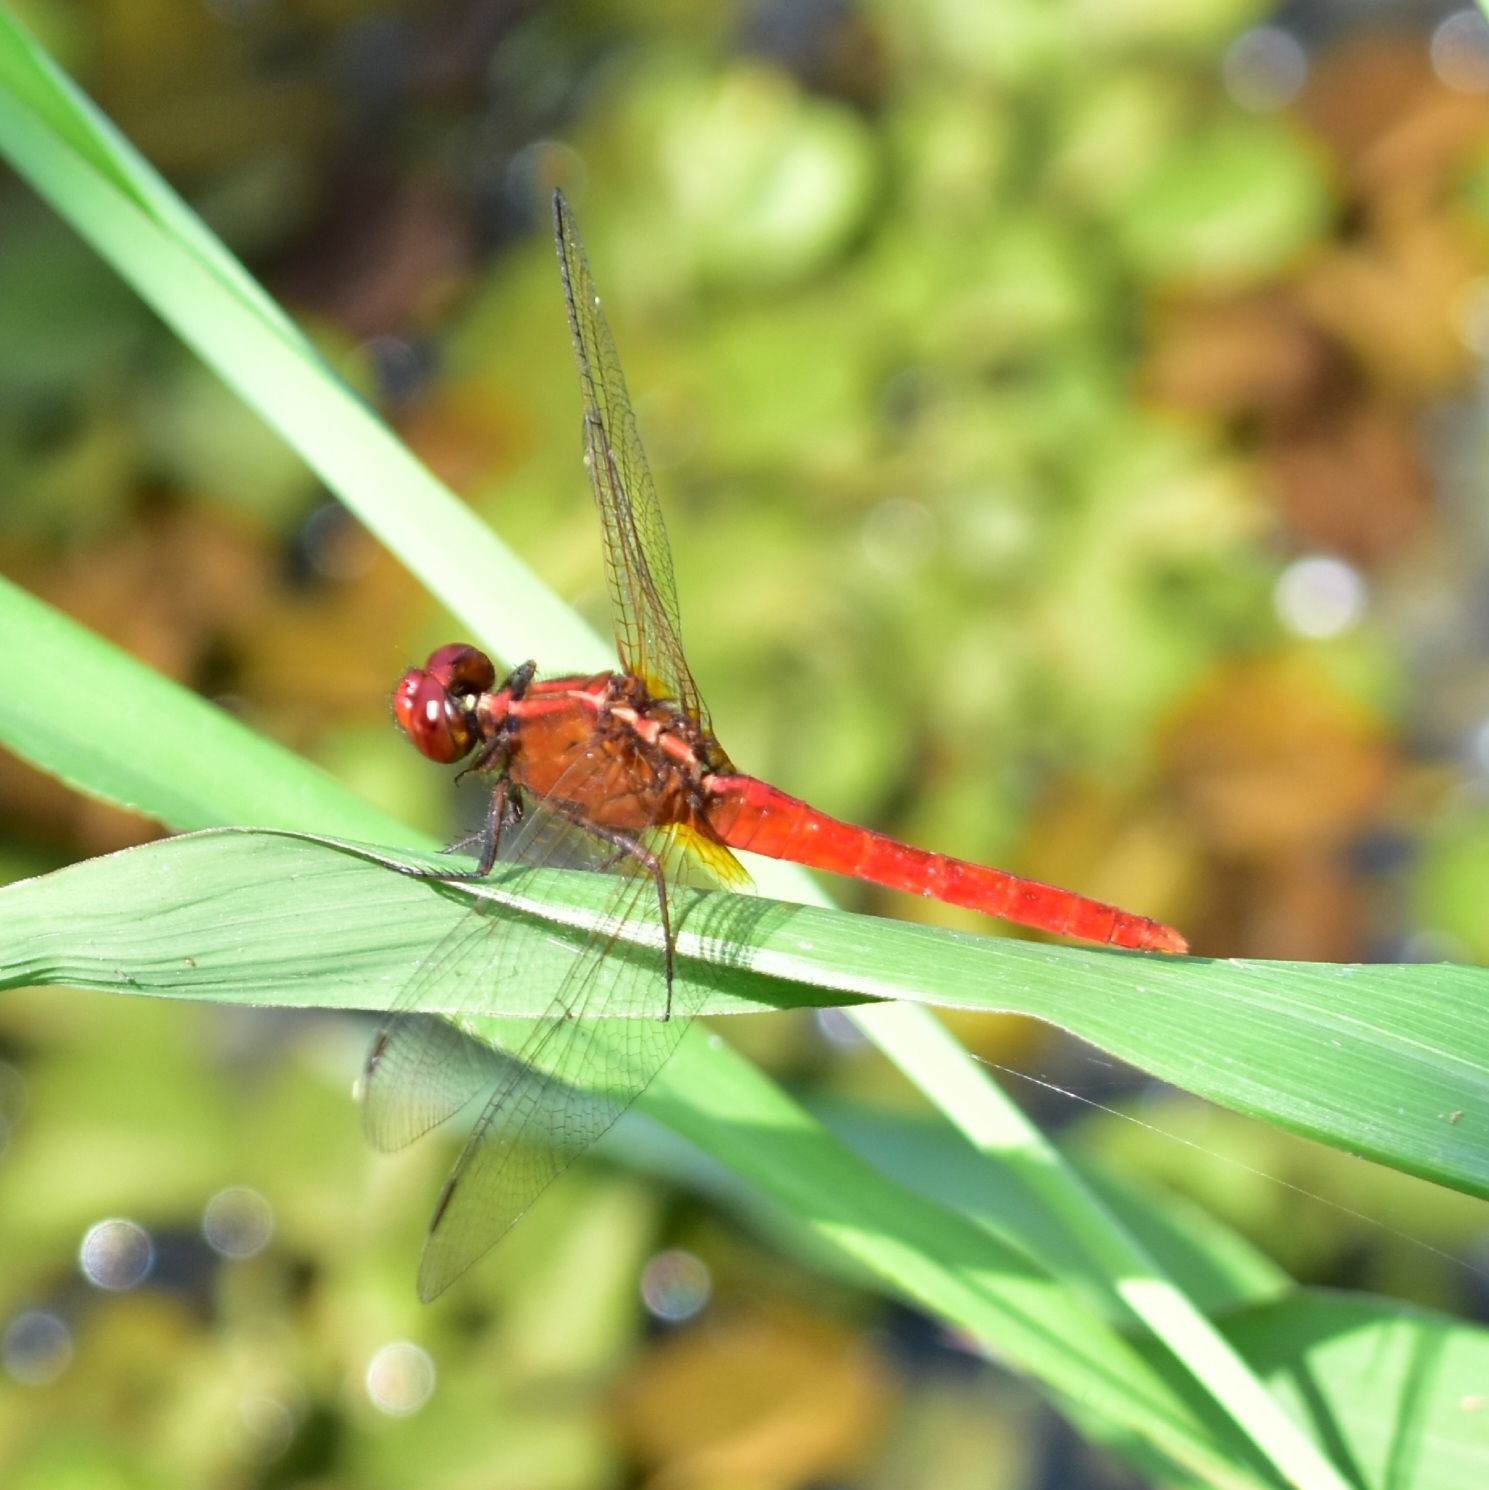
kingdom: Animalia
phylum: Arthropoda
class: Insecta
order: Odonata
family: Libellulidae
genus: Rhodothemis
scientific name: Rhodothemis rufa
